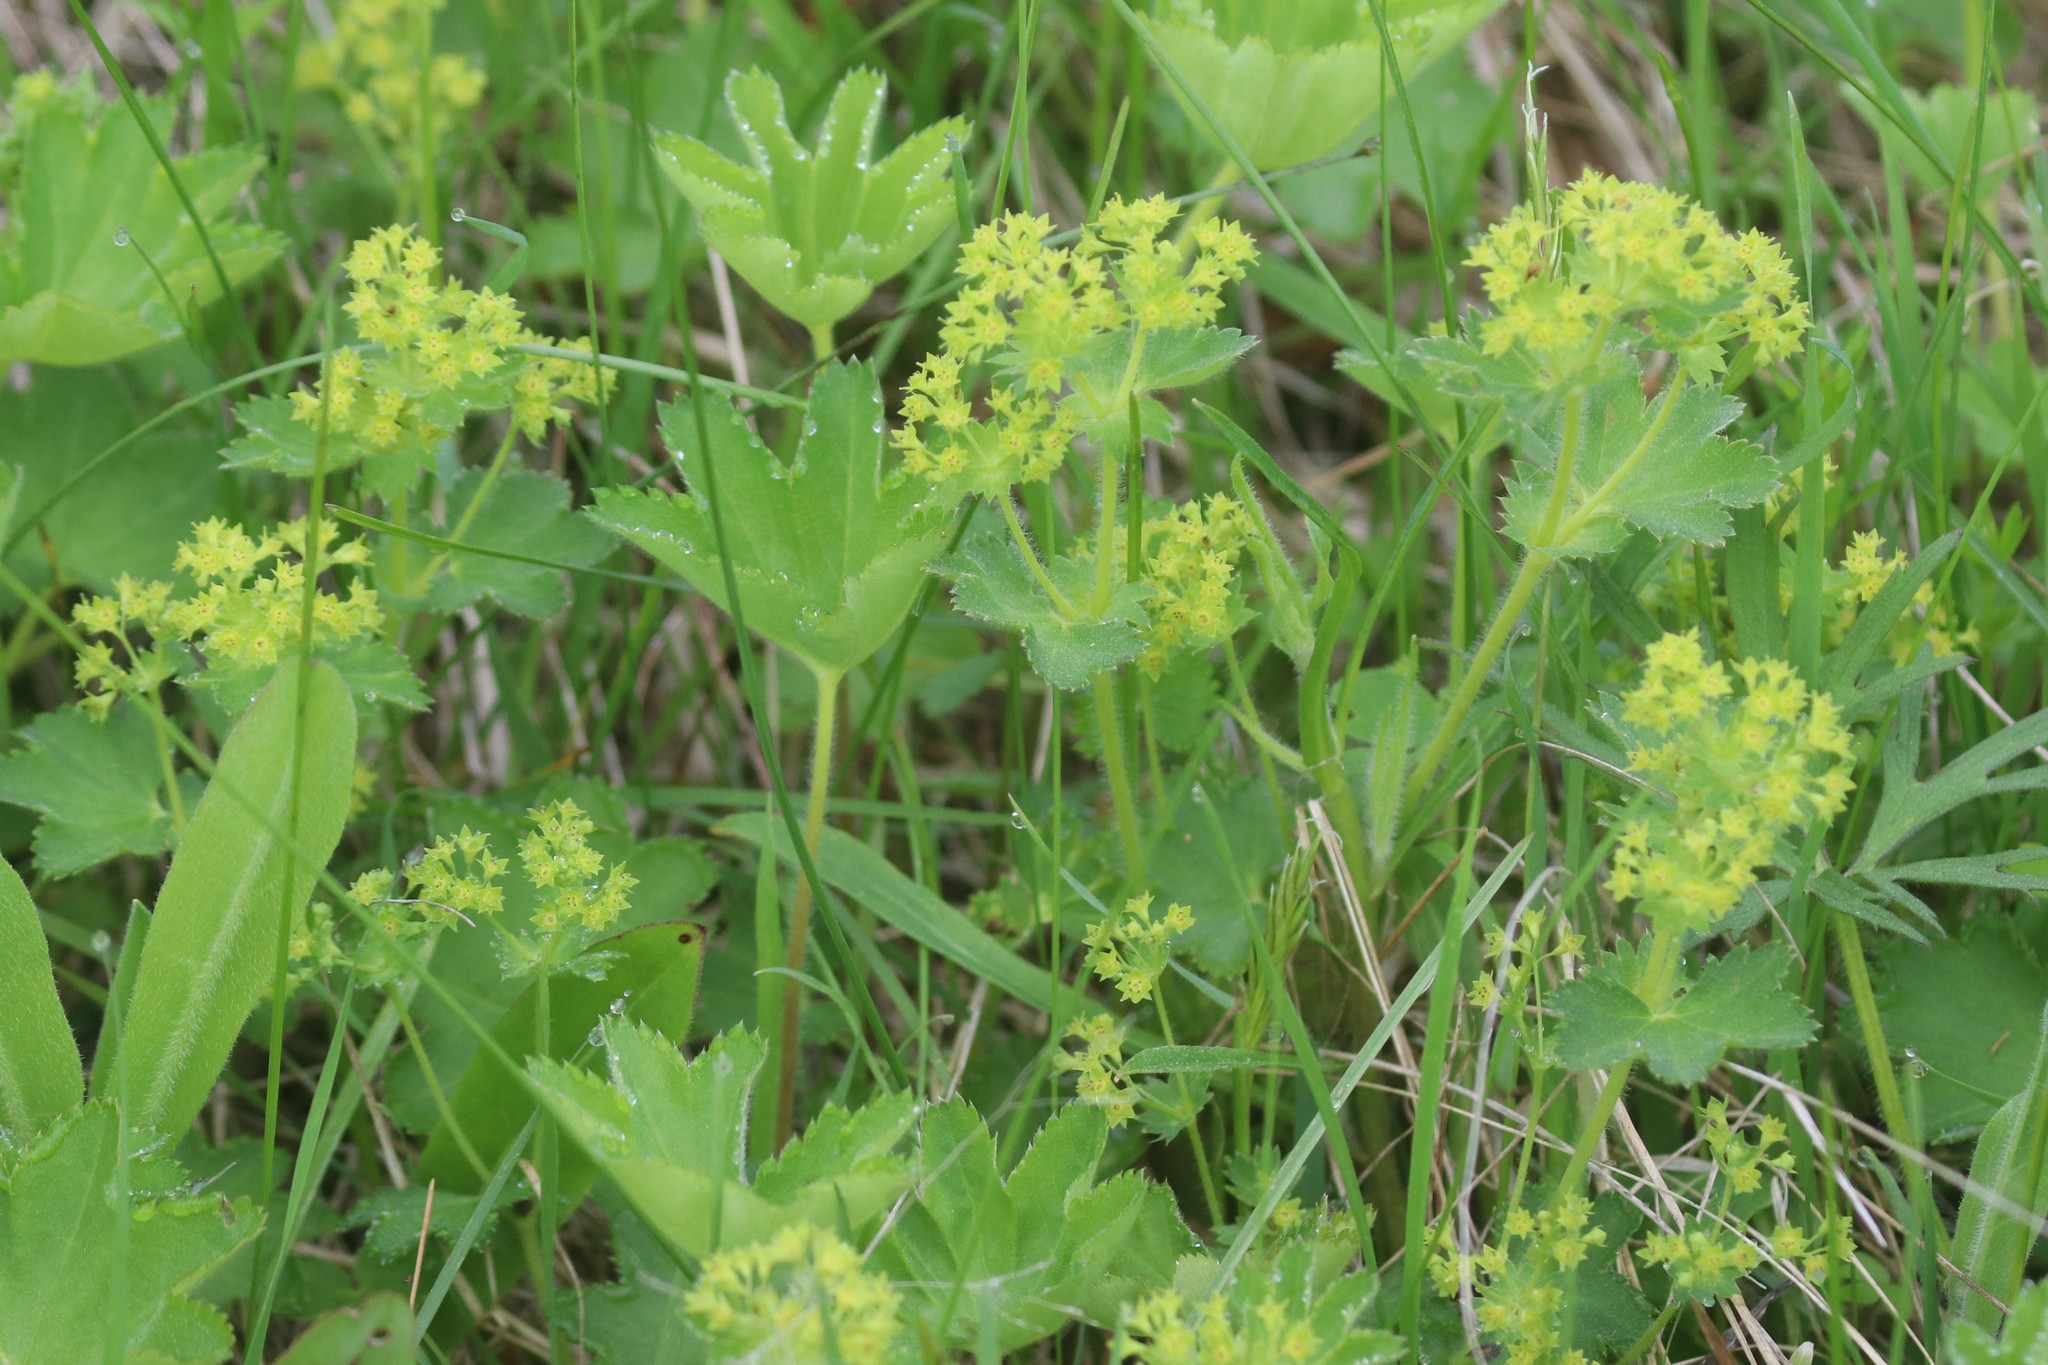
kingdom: Plantae
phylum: Tracheophyta
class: Magnoliopsida
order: Rosales
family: Rosaceae
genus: Alchemilla
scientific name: Alchemilla micans
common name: Gleaming lady's mantle
